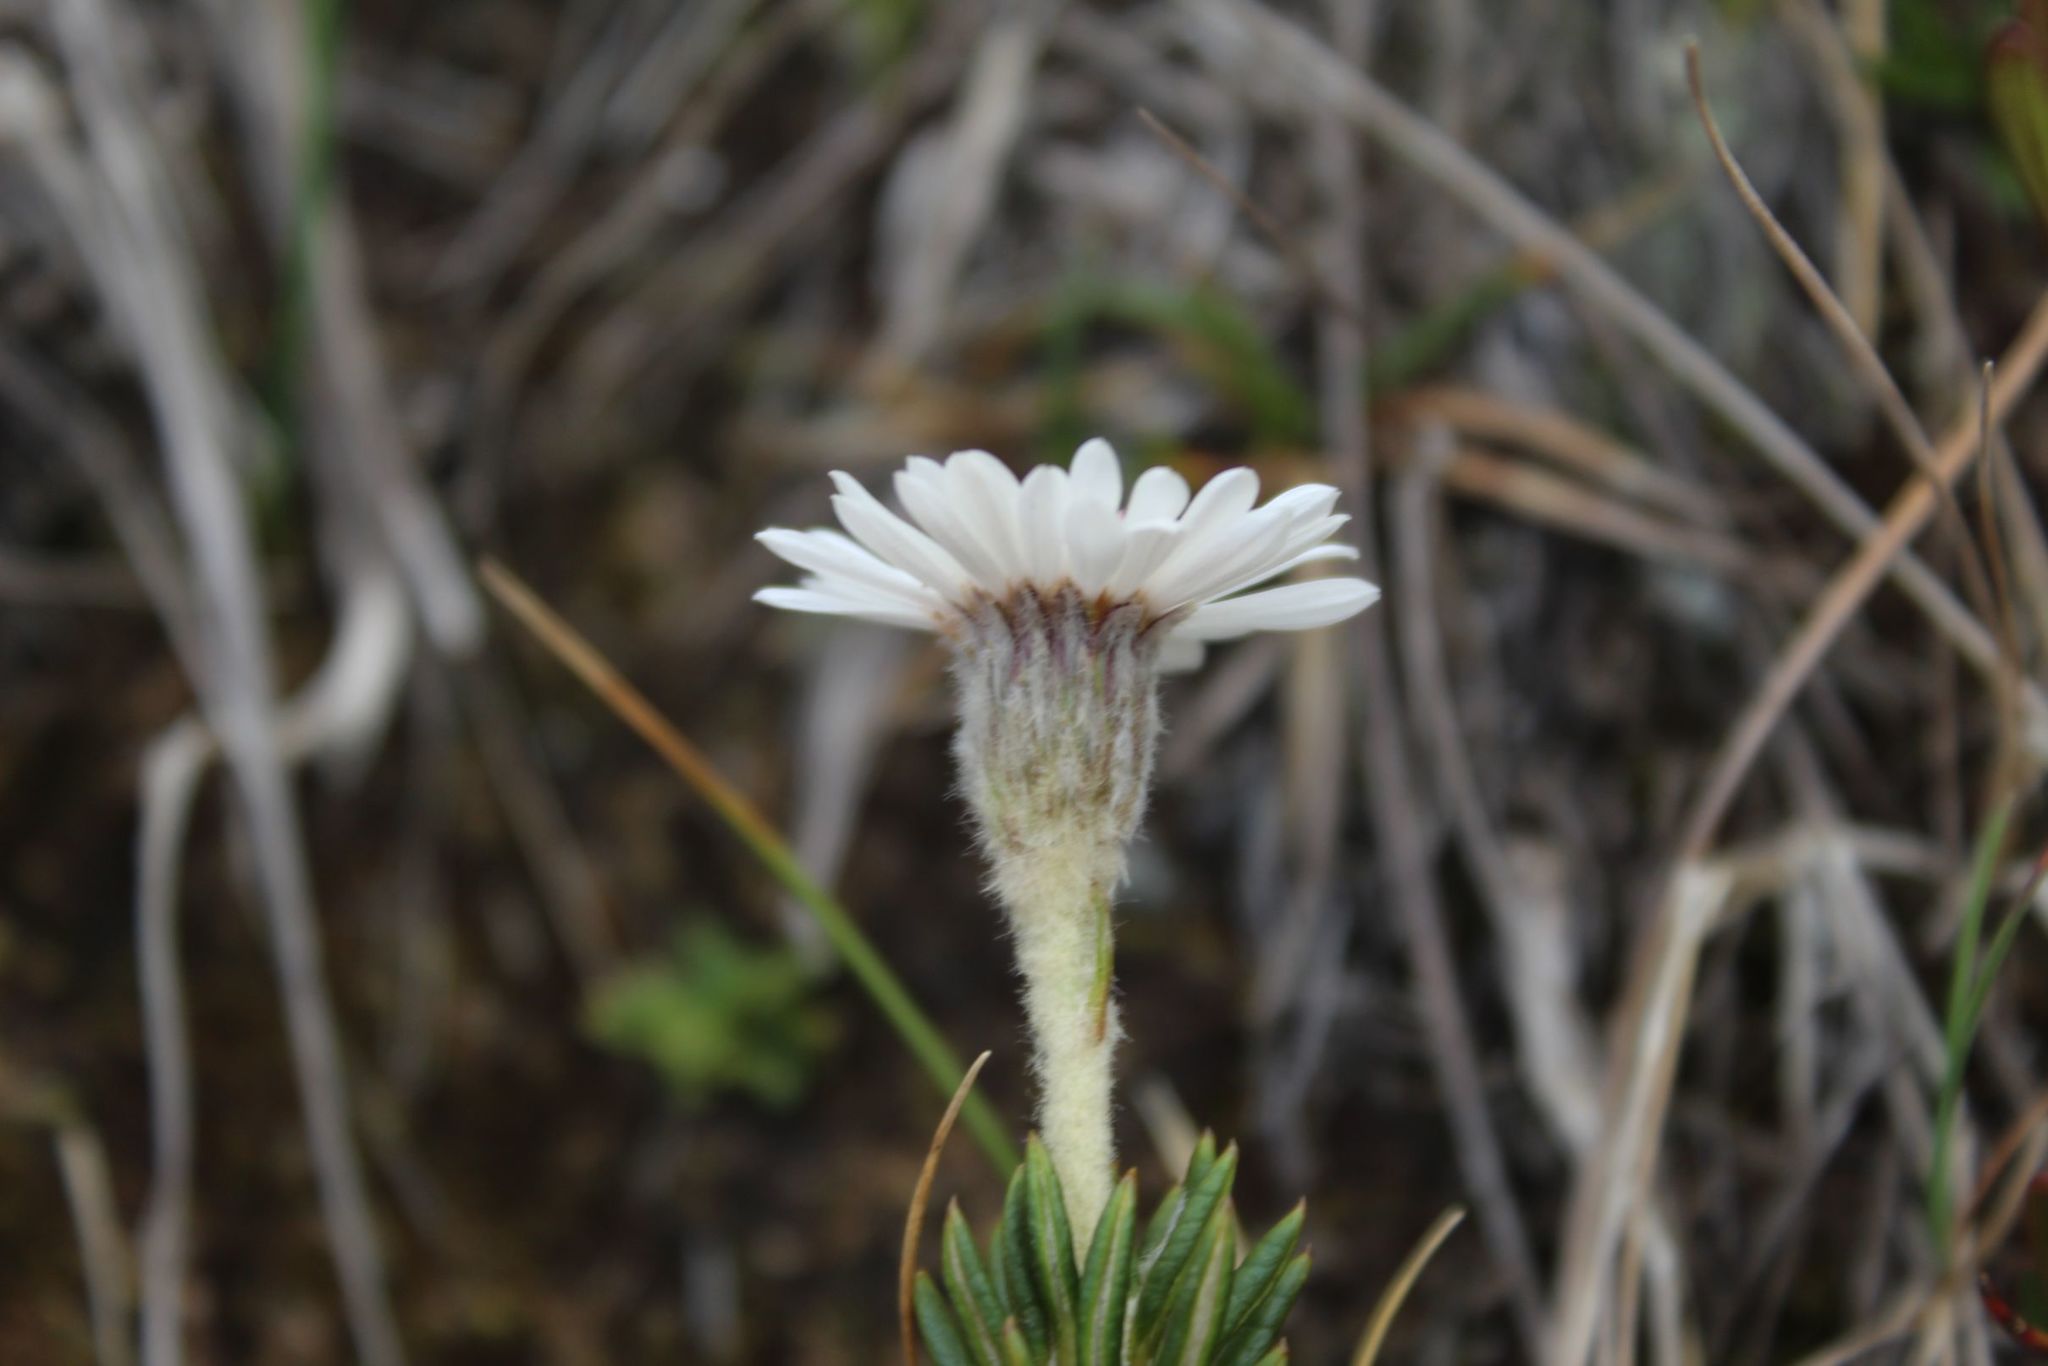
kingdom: Plantae
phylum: Tracheophyta
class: Magnoliopsida
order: Asterales
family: Asteraceae
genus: Linochilus
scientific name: Linochilus colombianus
